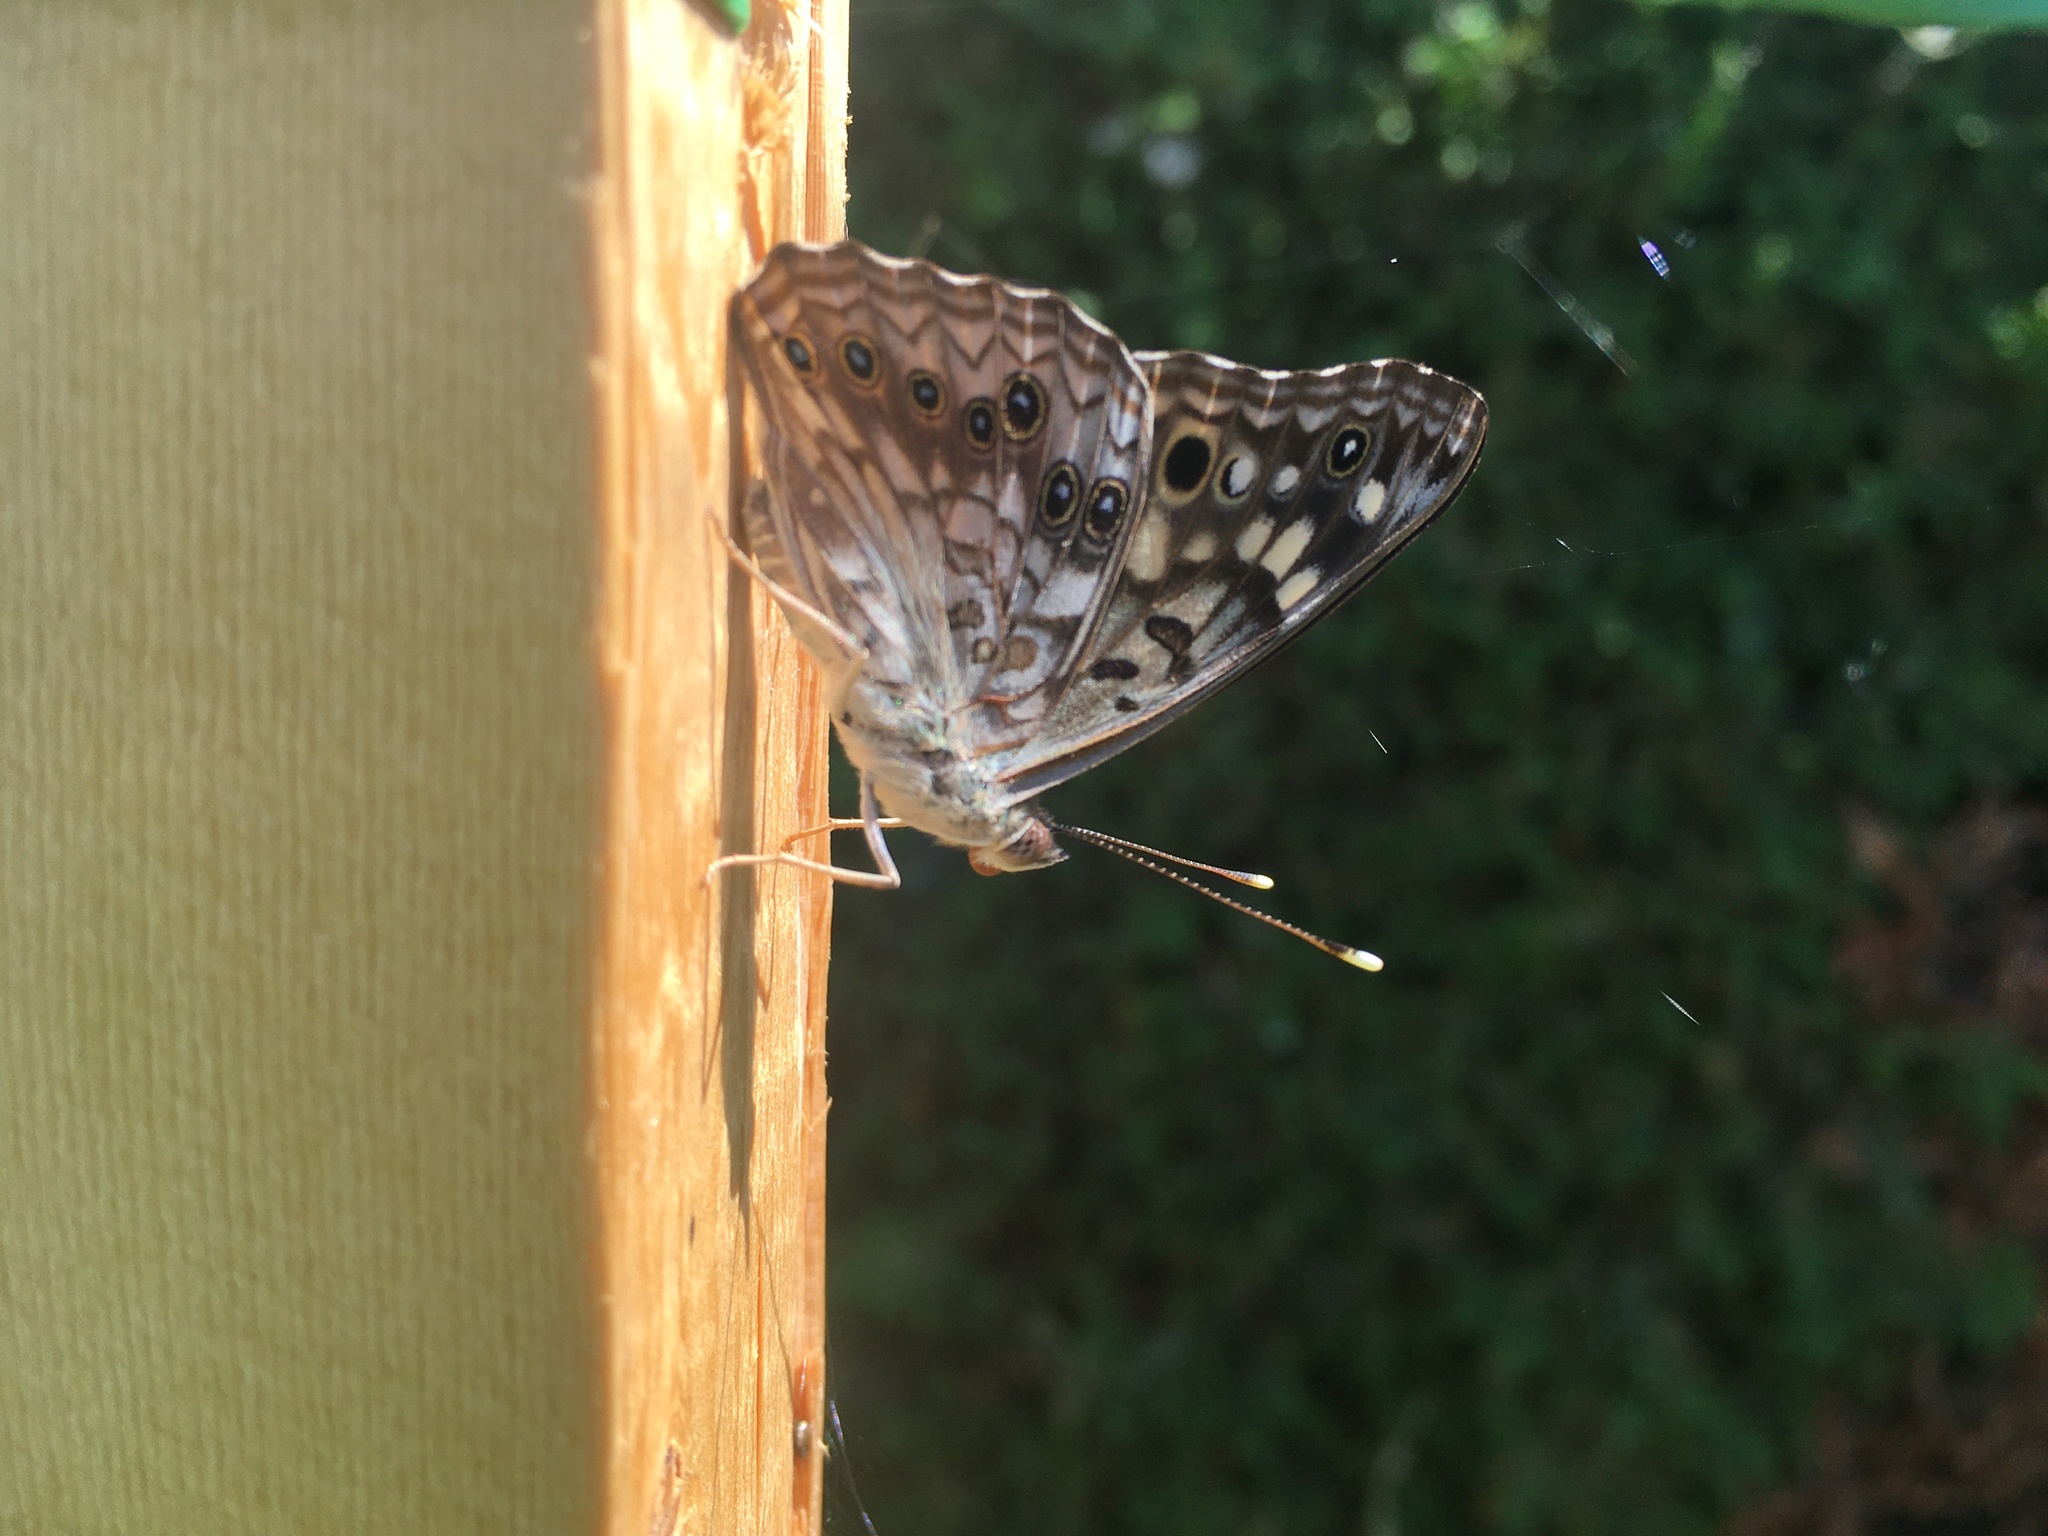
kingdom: Animalia
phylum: Arthropoda
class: Insecta
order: Lepidoptera
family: Nymphalidae
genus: Asterocampa
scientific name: Asterocampa celtis
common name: Hackberry emperor
